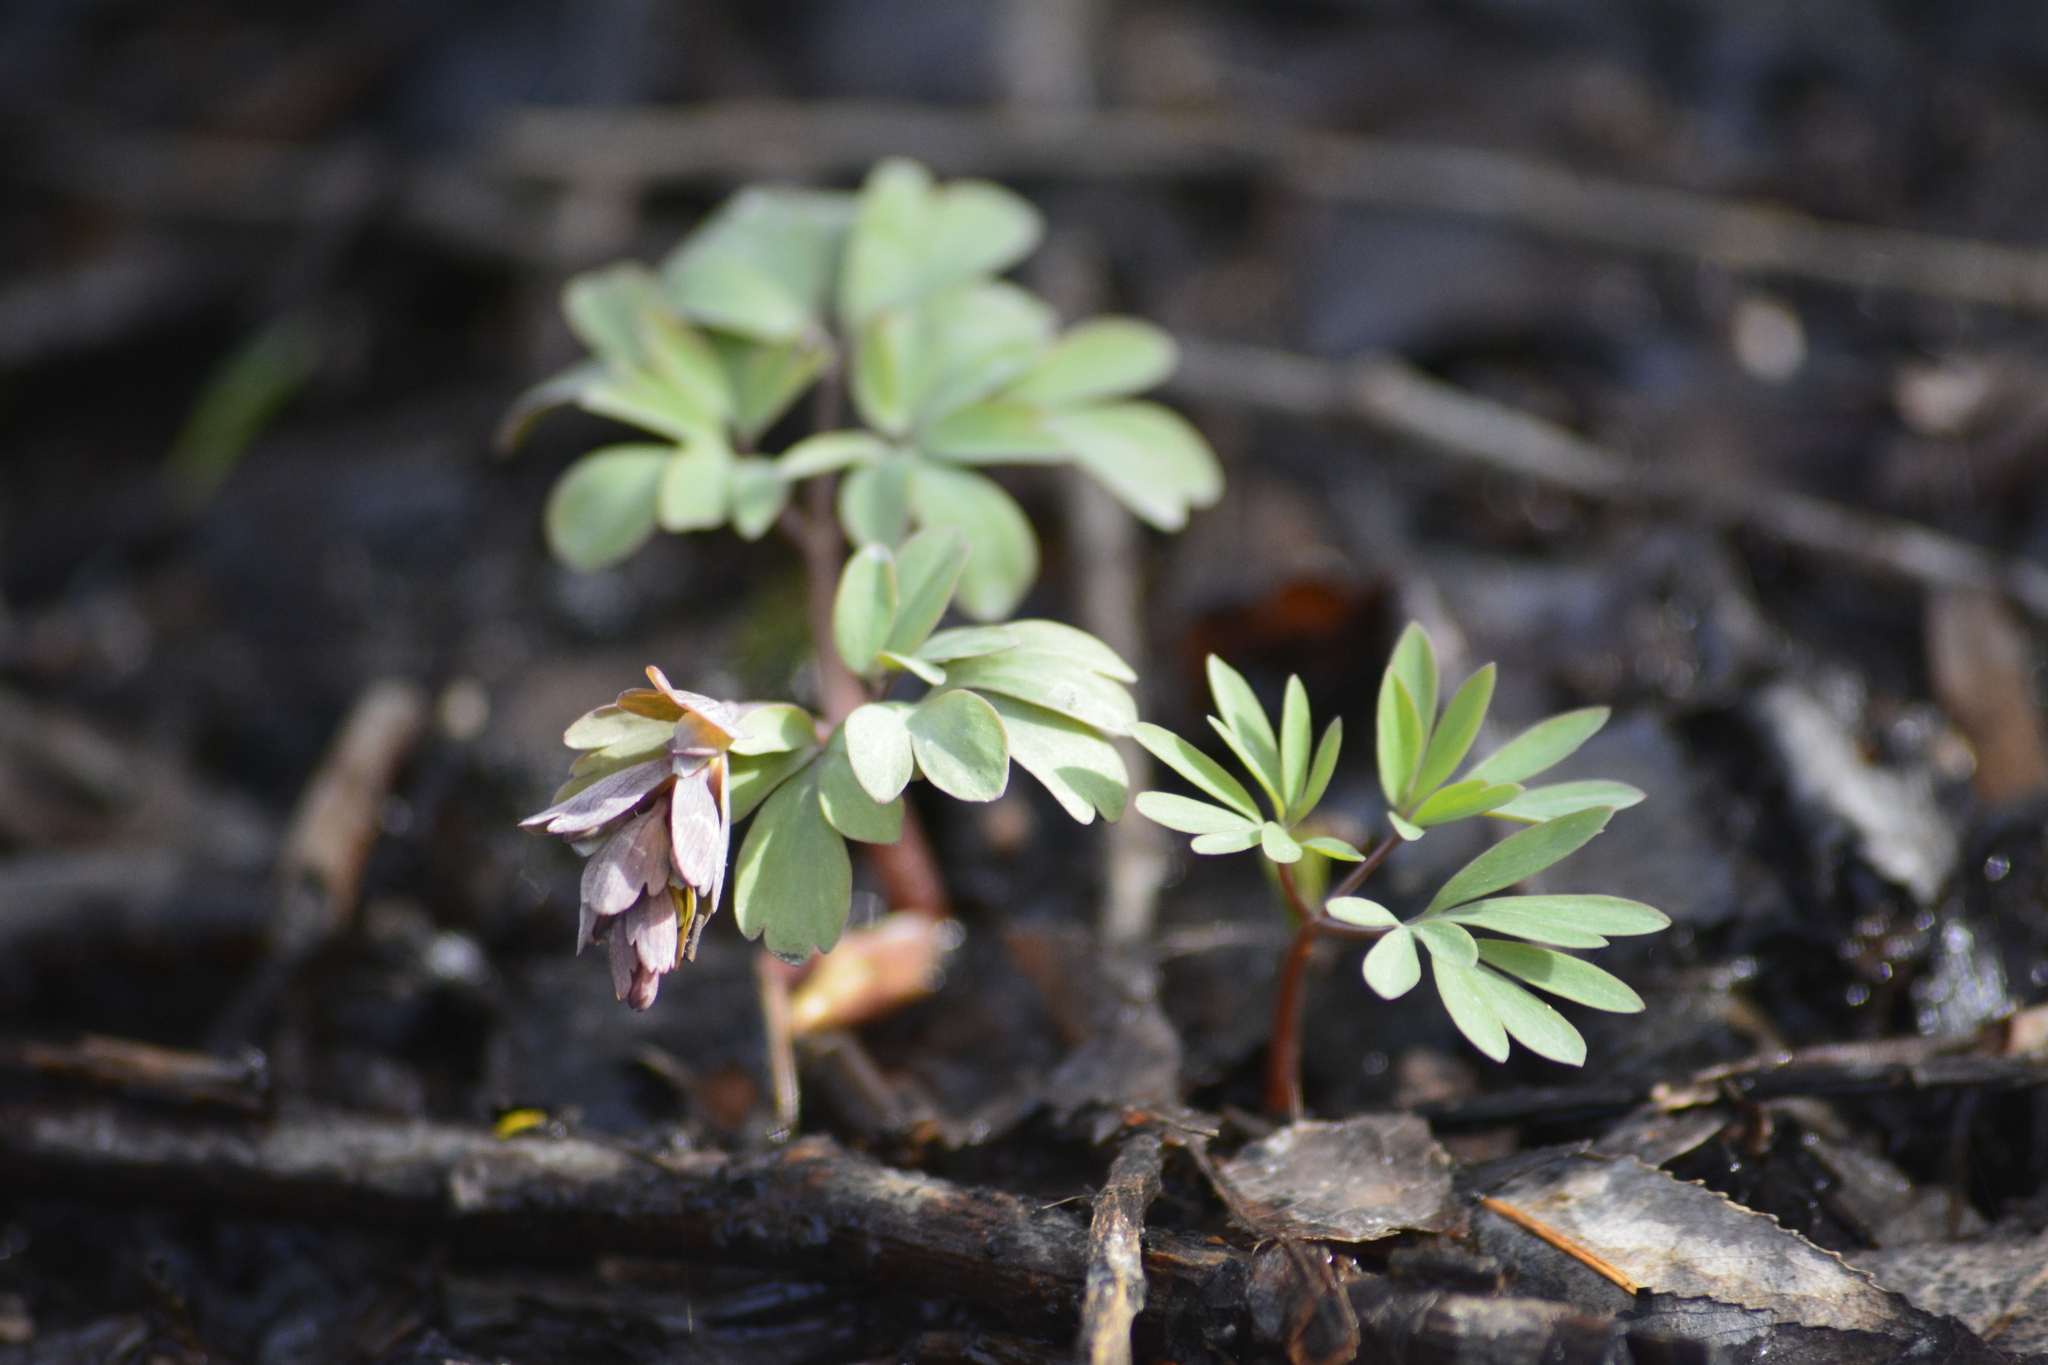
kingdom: Plantae
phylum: Tracheophyta
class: Magnoliopsida
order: Ranunculales
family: Papaveraceae
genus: Corydalis
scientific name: Corydalis solida
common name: Bird-in-a-bush
